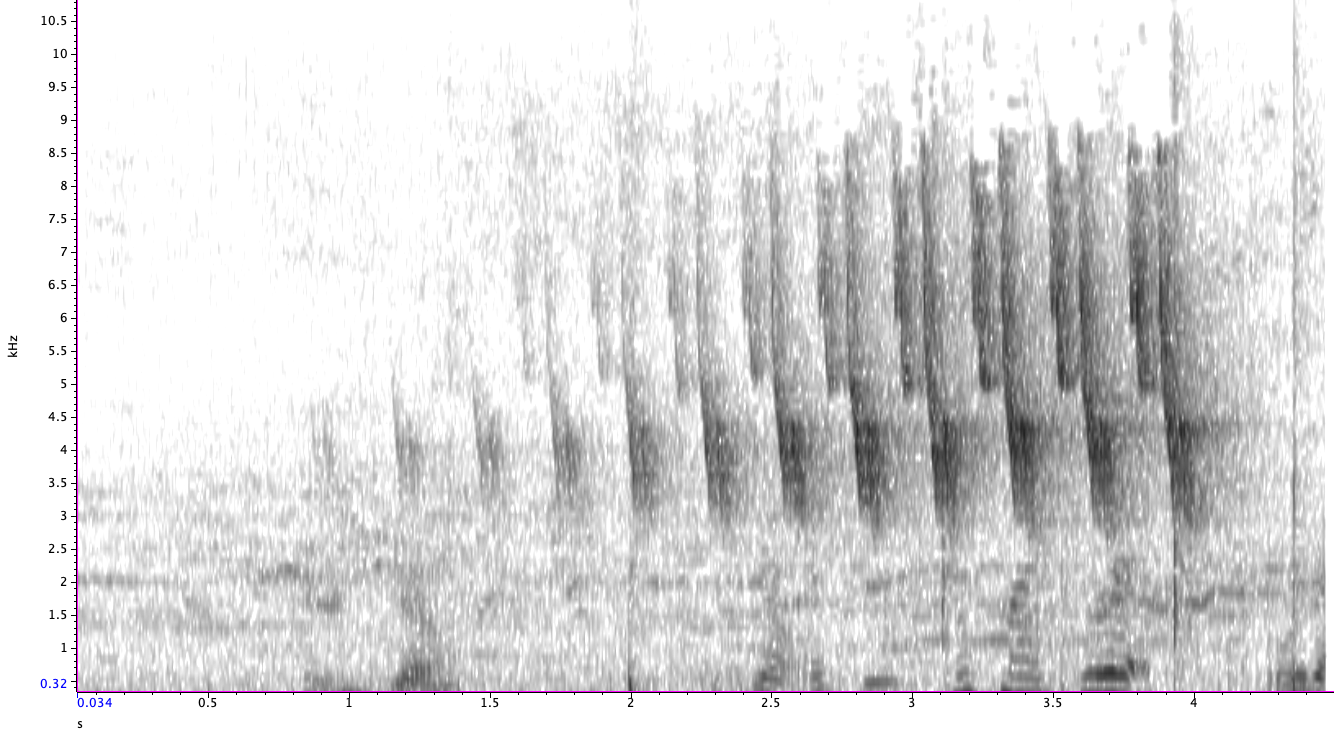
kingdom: Animalia
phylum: Chordata
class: Aves
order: Passeriformes
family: Parulidae
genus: Seiurus
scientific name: Seiurus aurocapilla
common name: Ovenbird
